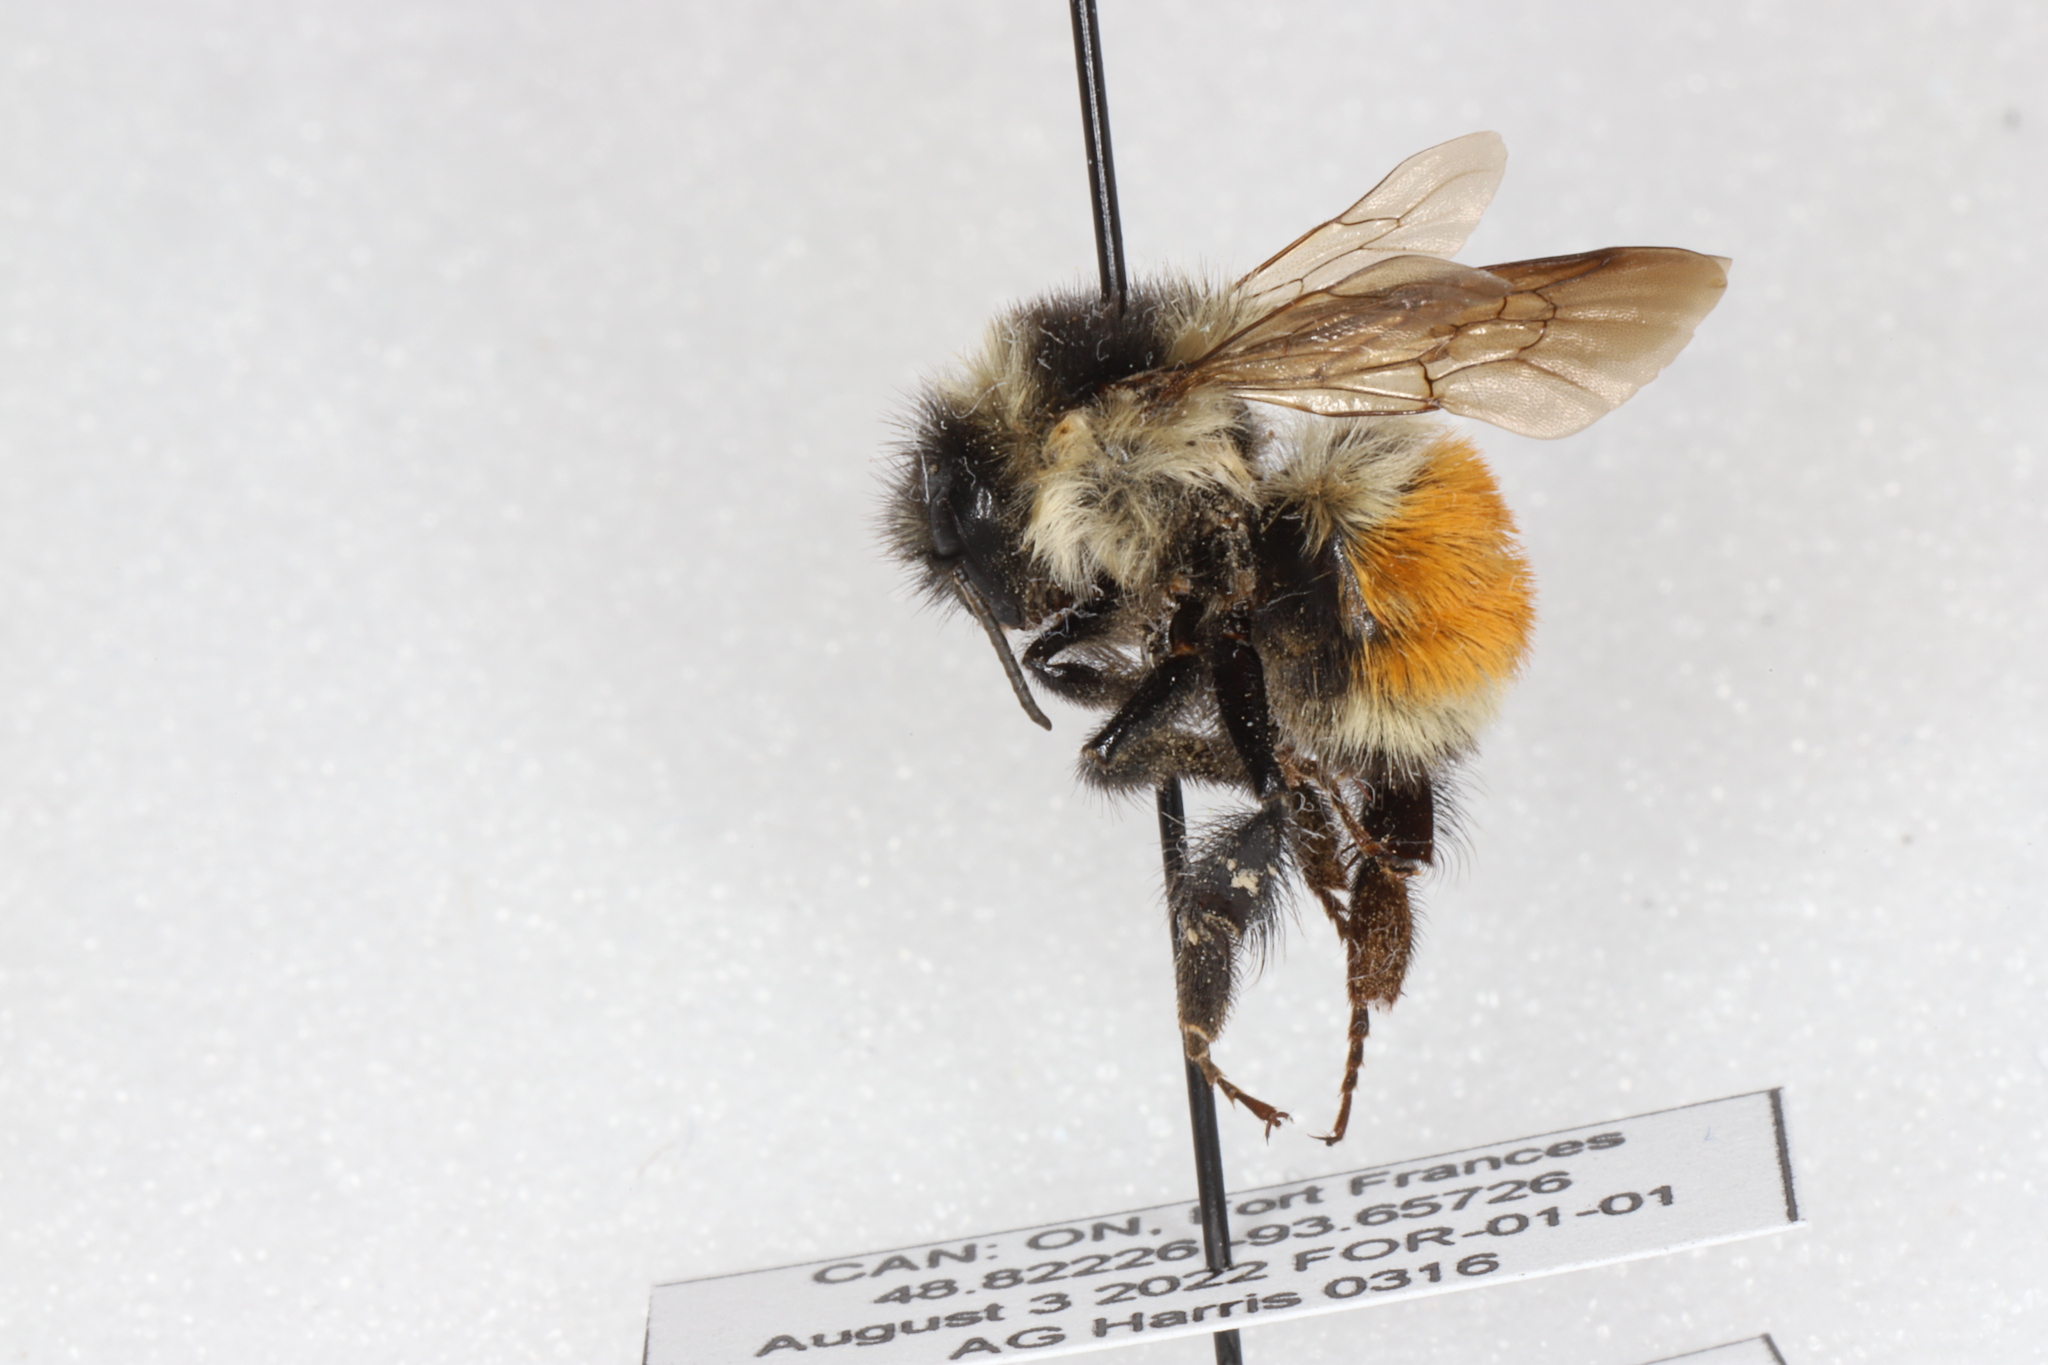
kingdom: Animalia
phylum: Arthropoda
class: Insecta
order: Hymenoptera
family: Apidae
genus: Bombus
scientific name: Bombus ternarius
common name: Tri-colored bumble bee
